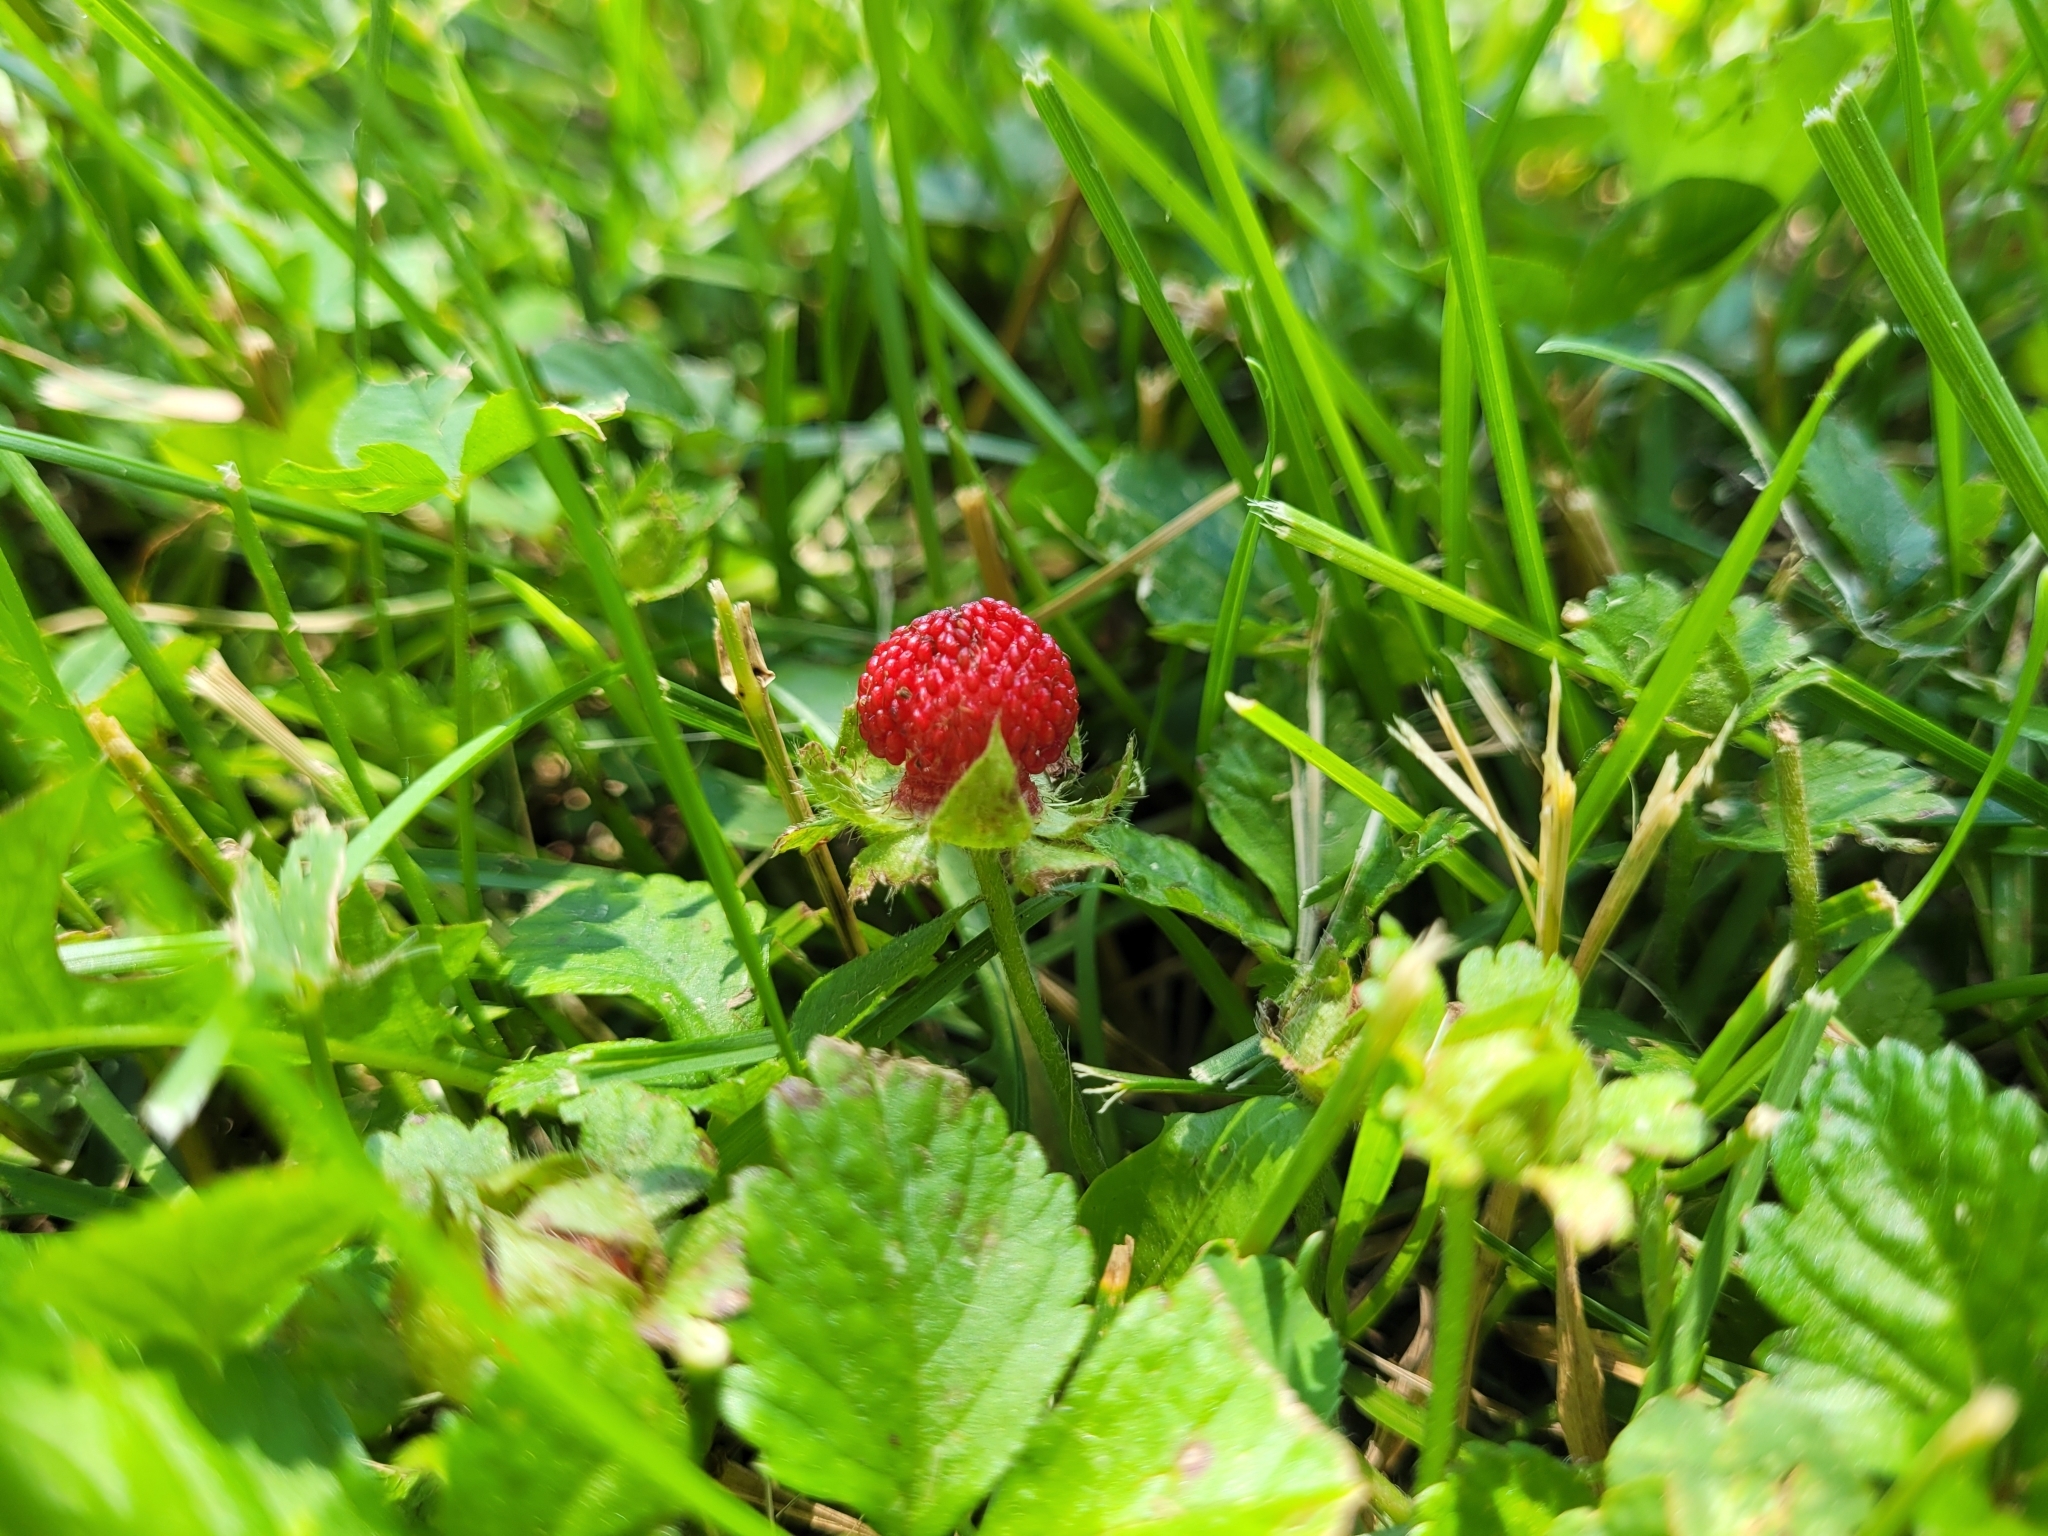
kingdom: Plantae
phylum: Tracheophyta
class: Magnoliopsida
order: Rosales
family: Rosaceae
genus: Potentilla
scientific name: Potentilla indica
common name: Yellow-flowered strawberry
